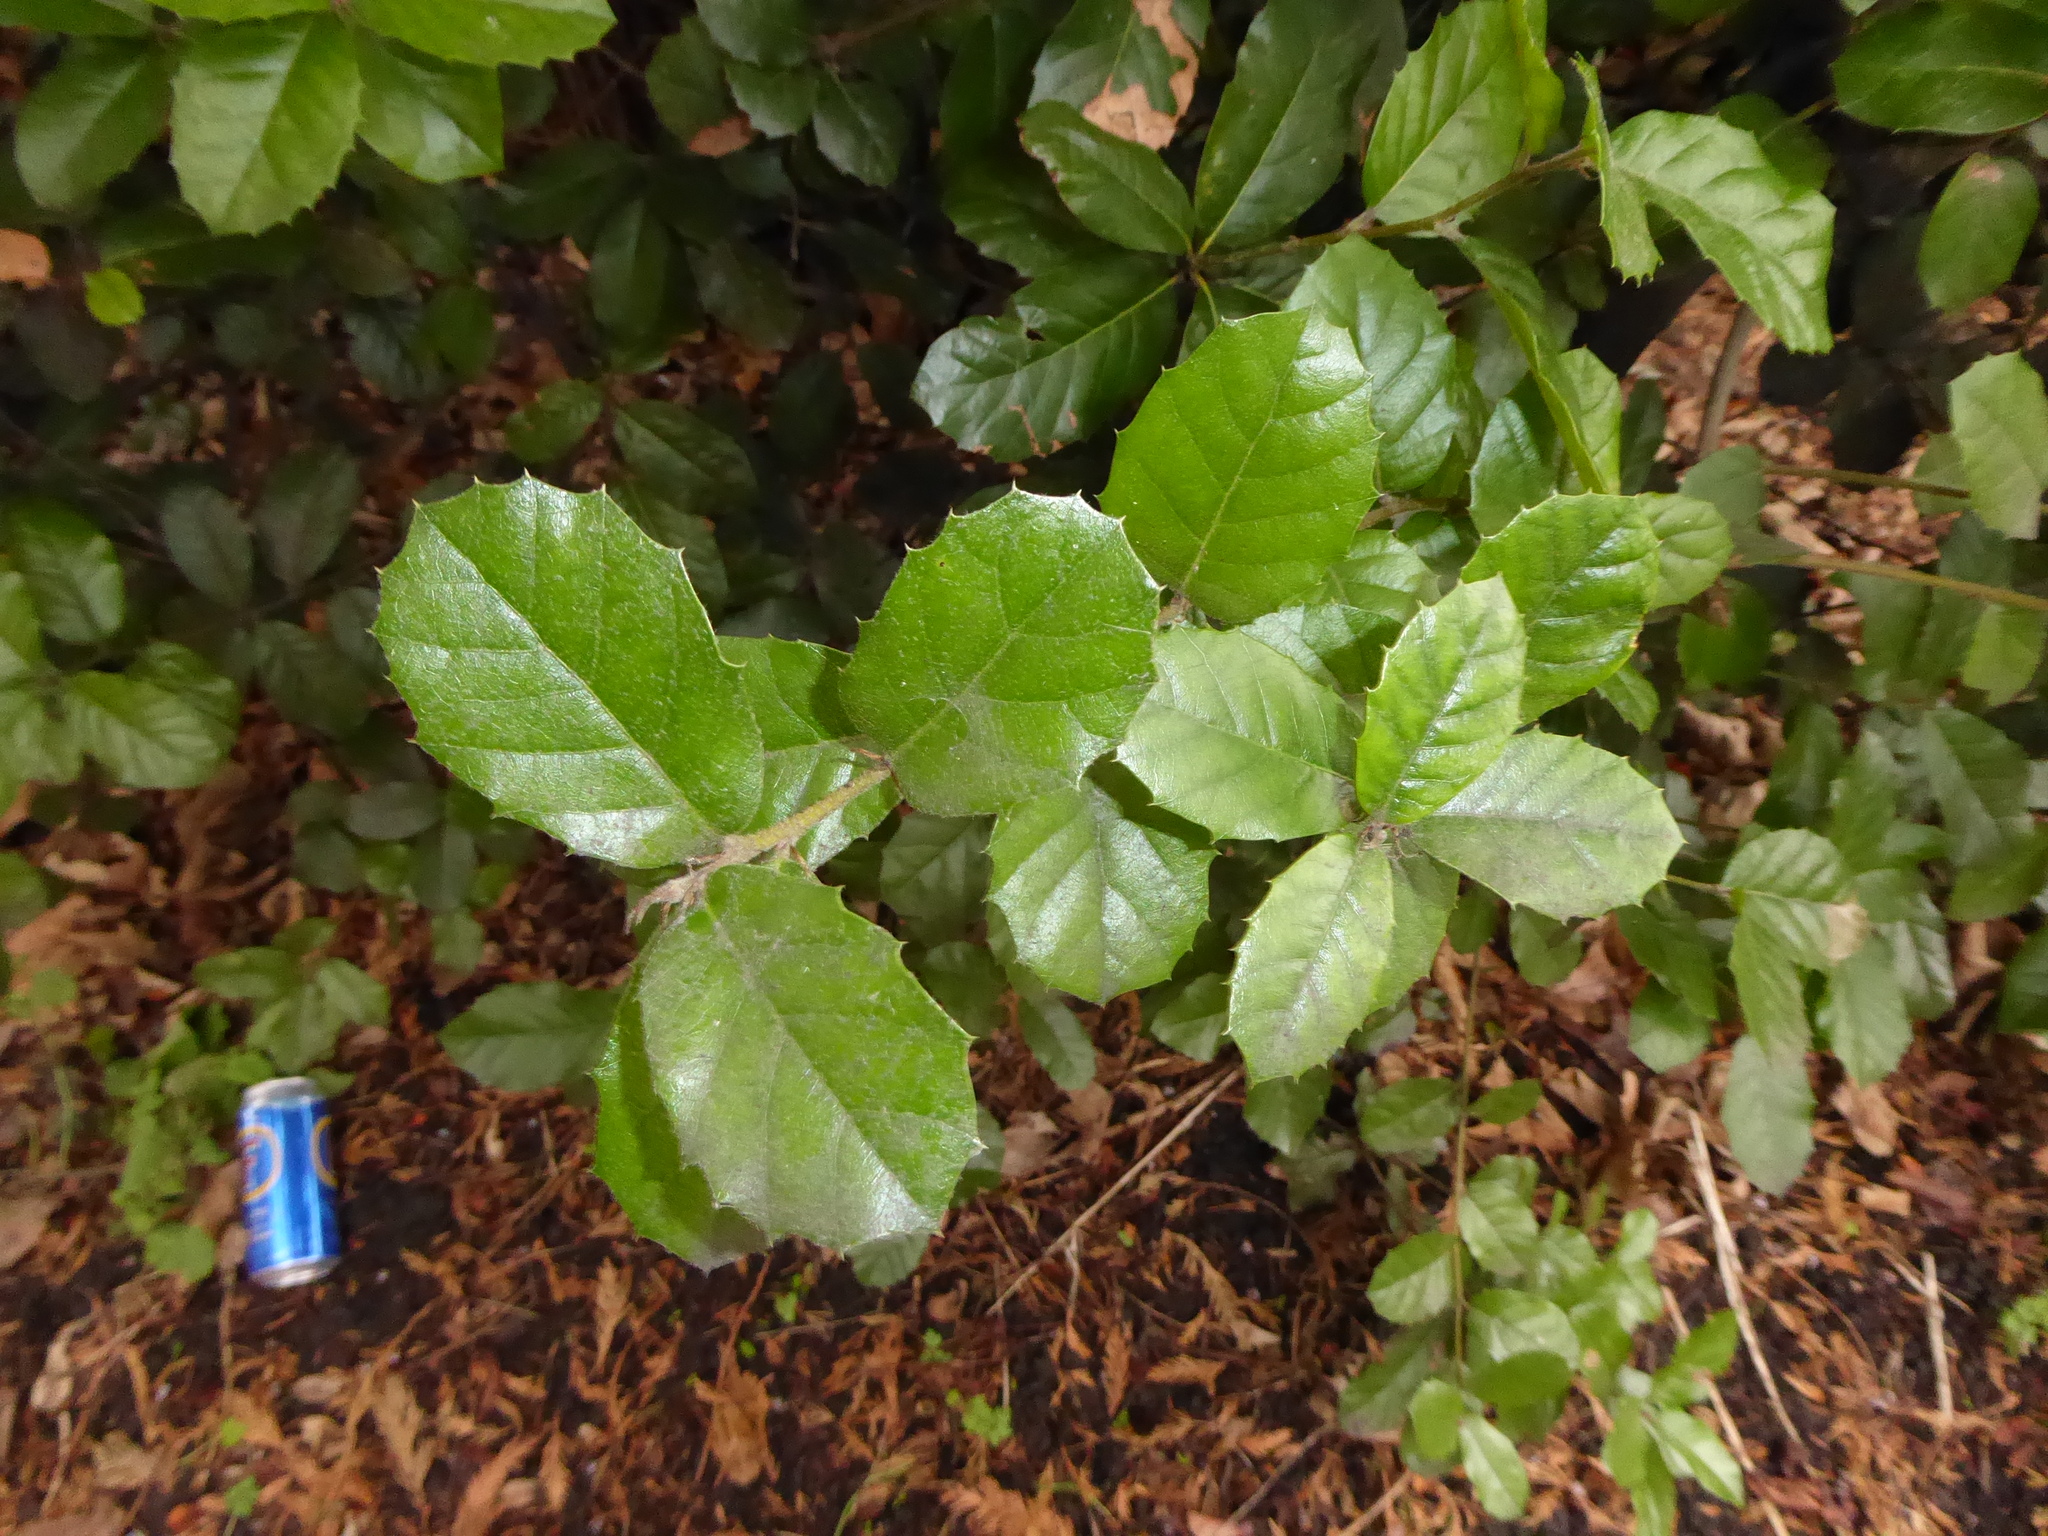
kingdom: Plantae
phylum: Tracheophyta
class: Magnoliopsida
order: Fagales
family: Fagaceae
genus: Quercus
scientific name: Quercus ilex
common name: Evergreen oak
